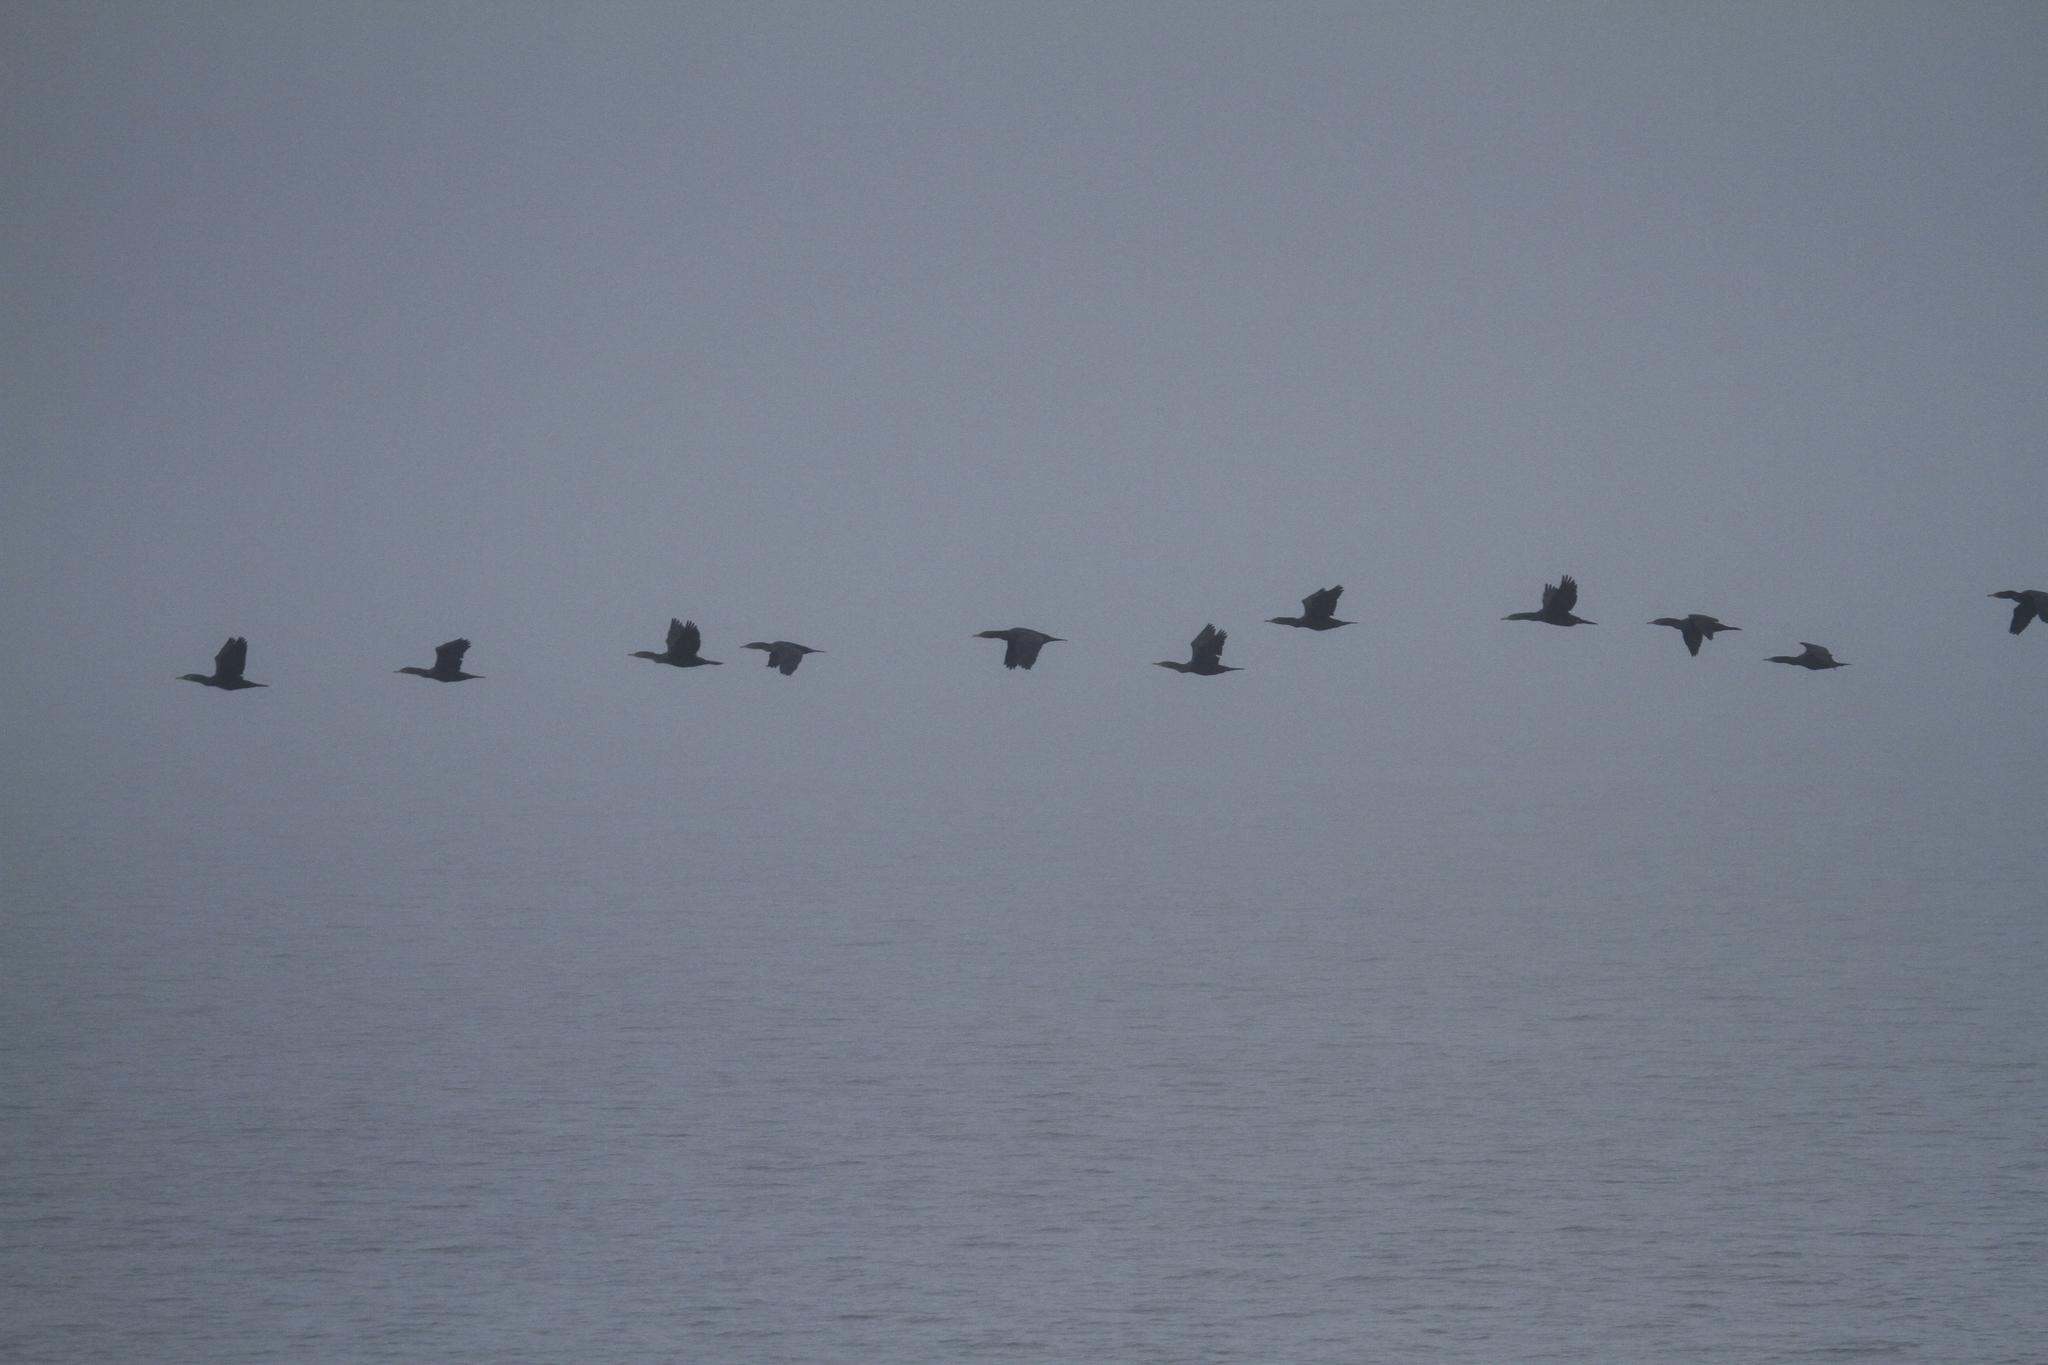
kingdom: Animalia
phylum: Chordata
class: Aves
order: Suliformes
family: Phalacrocoracidae
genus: Phalacrocorax
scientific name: Phalacrocorax auritus
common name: Double-crested cormorant
